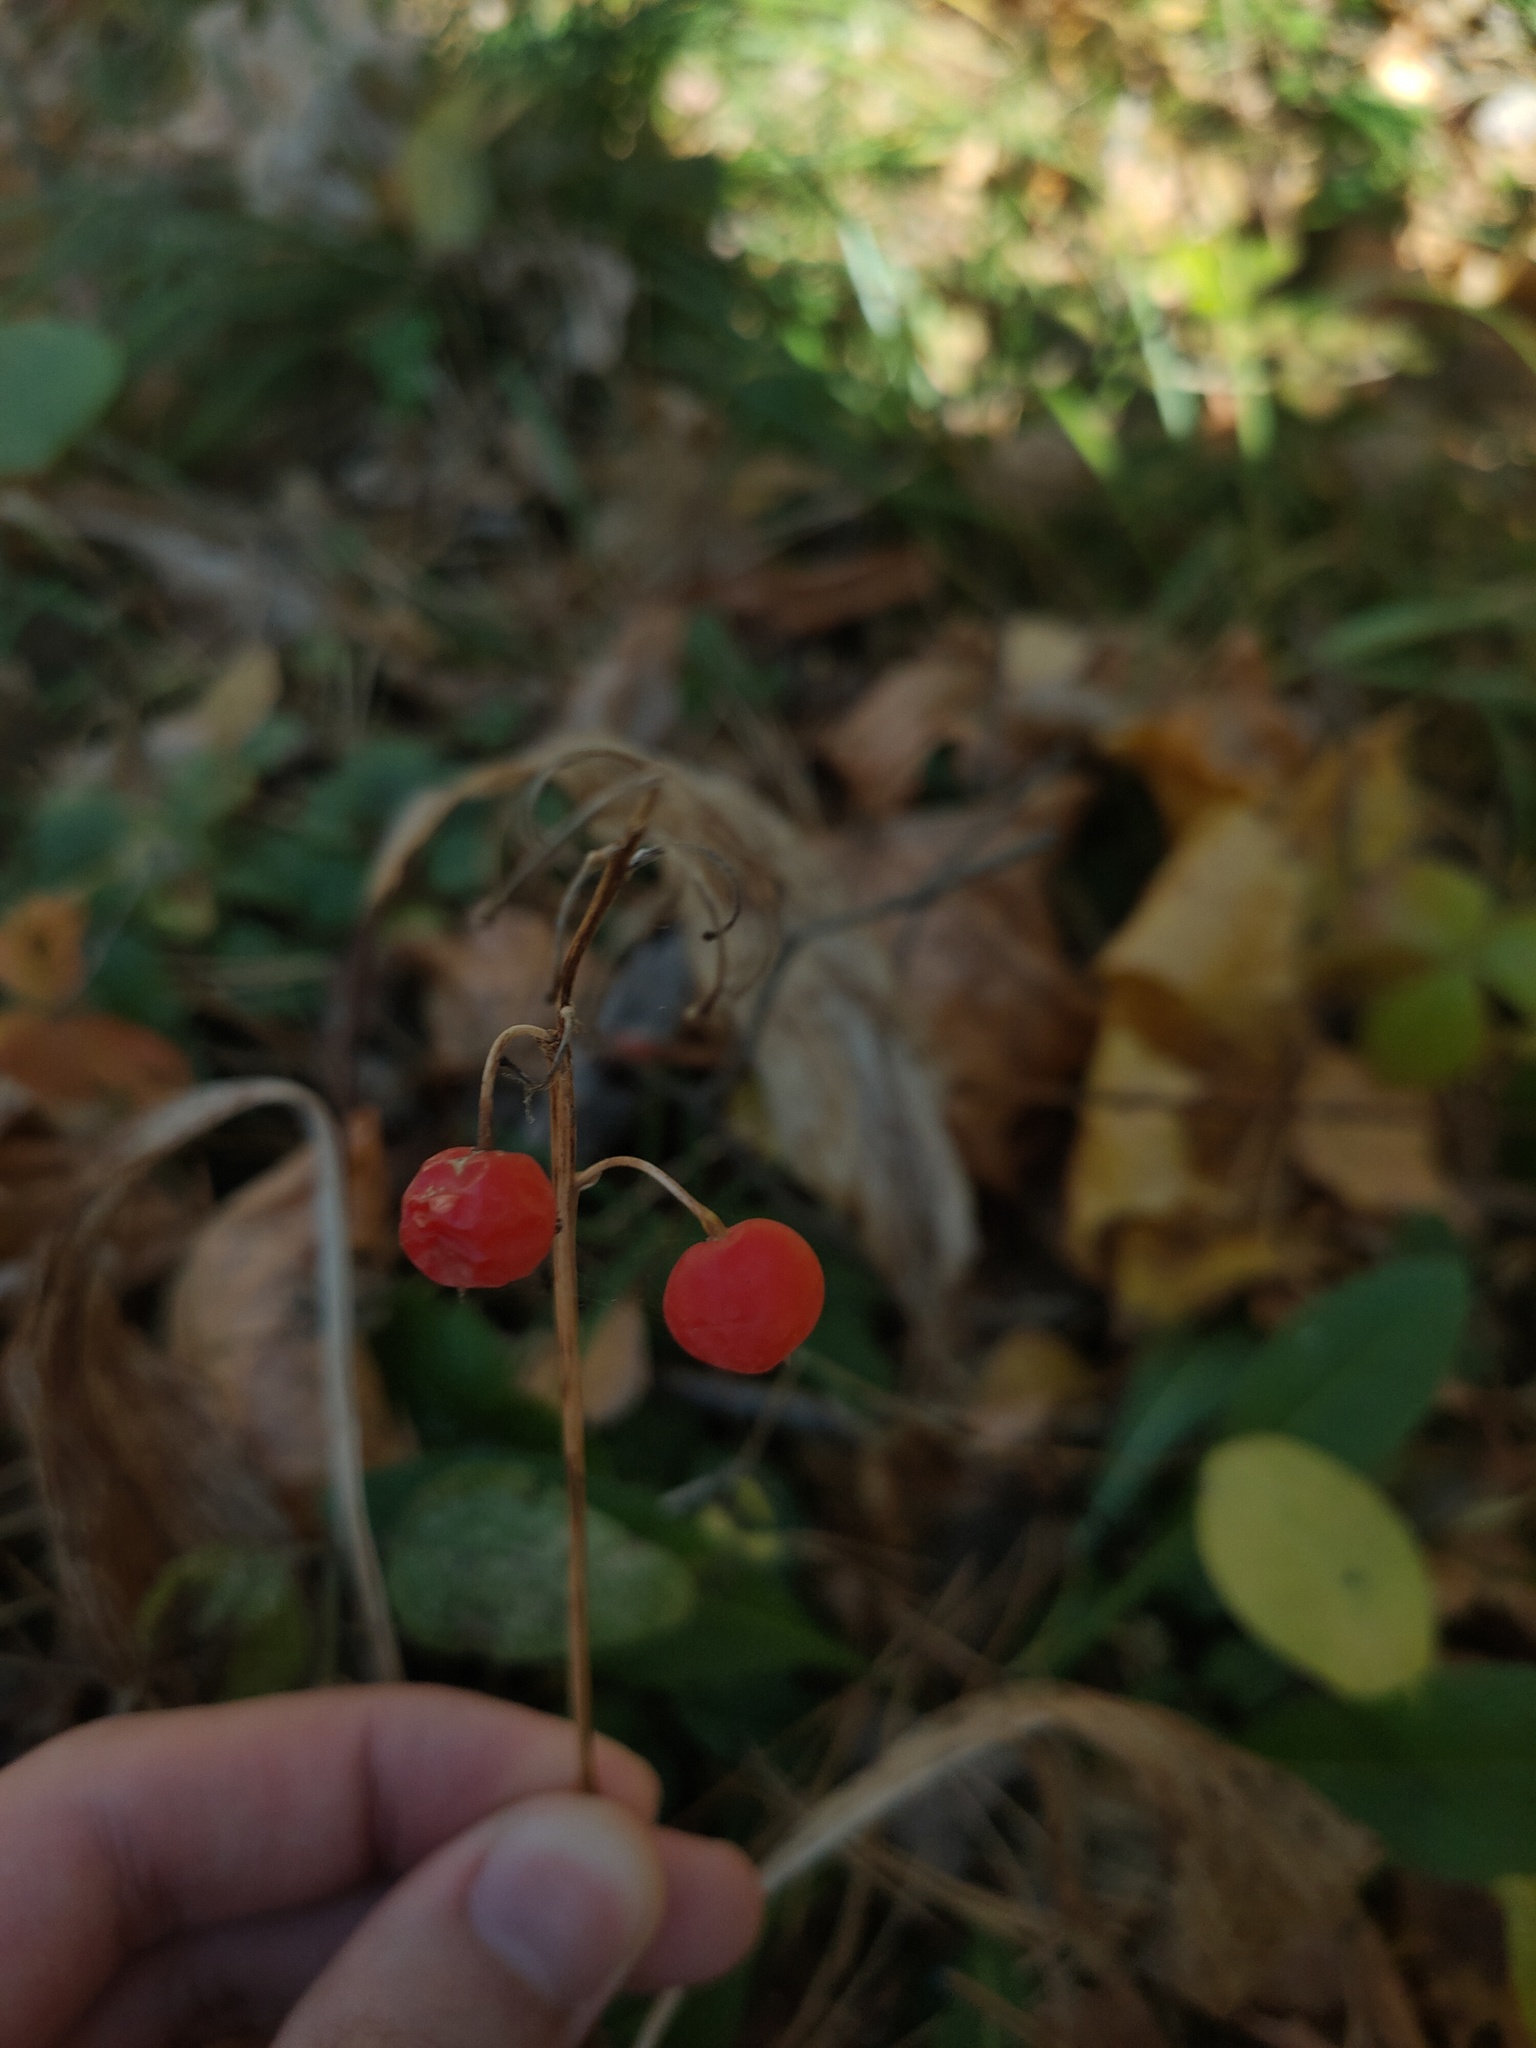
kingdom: Plantae
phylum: Tracheophyta
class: Liliopsida
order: Asparagales
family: Asparagaceae
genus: Convallaria
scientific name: Convallaria majalis
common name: Lily-of-the-valley
